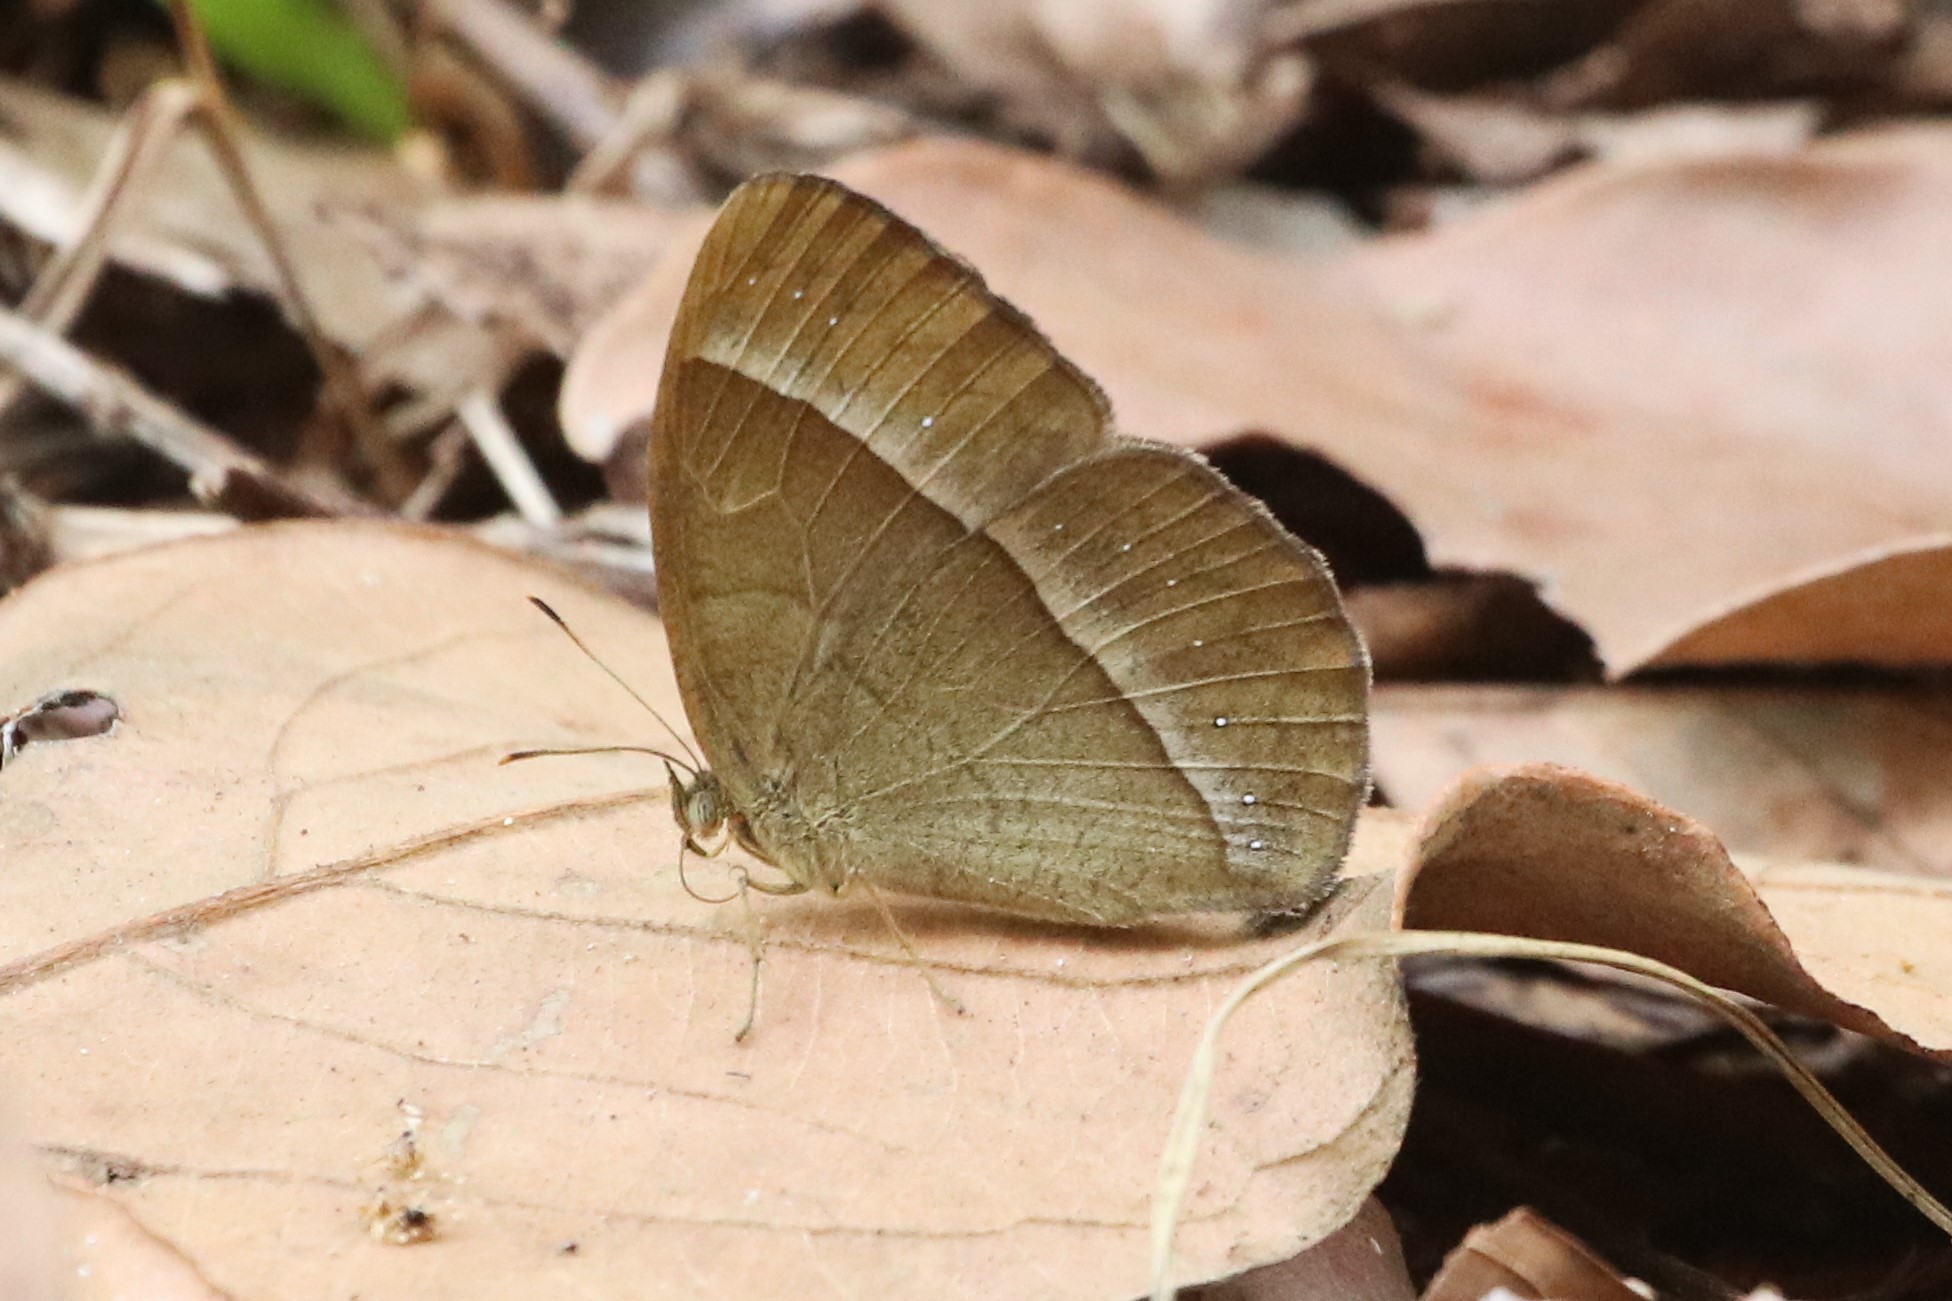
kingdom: Animalia
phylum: Arthropoda
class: Insecta
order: Lepidoptera
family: Nymphalidae
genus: Mycalesis
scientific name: Mycalesis francisca
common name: Lilacine bushbrown
